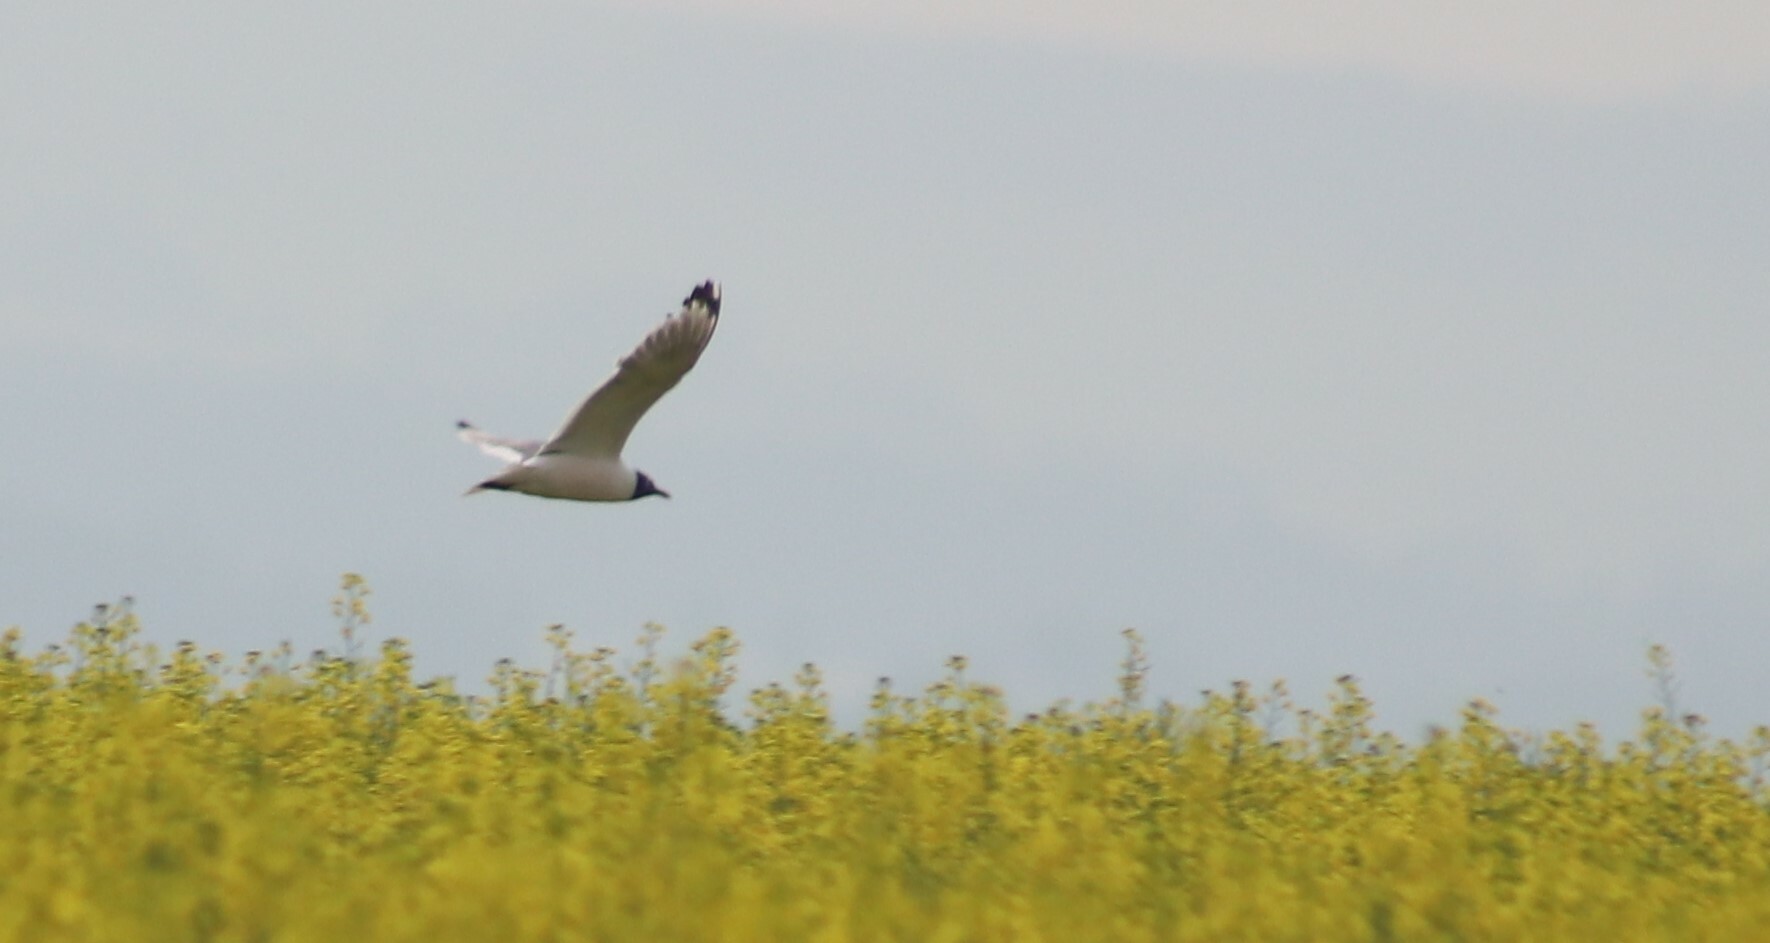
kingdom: Animalia
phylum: Chordata
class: Aves
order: Charadriiformes
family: Laridae
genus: Leucophaeus
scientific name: Leucophaeus pipixcan
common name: Franklin's gull
